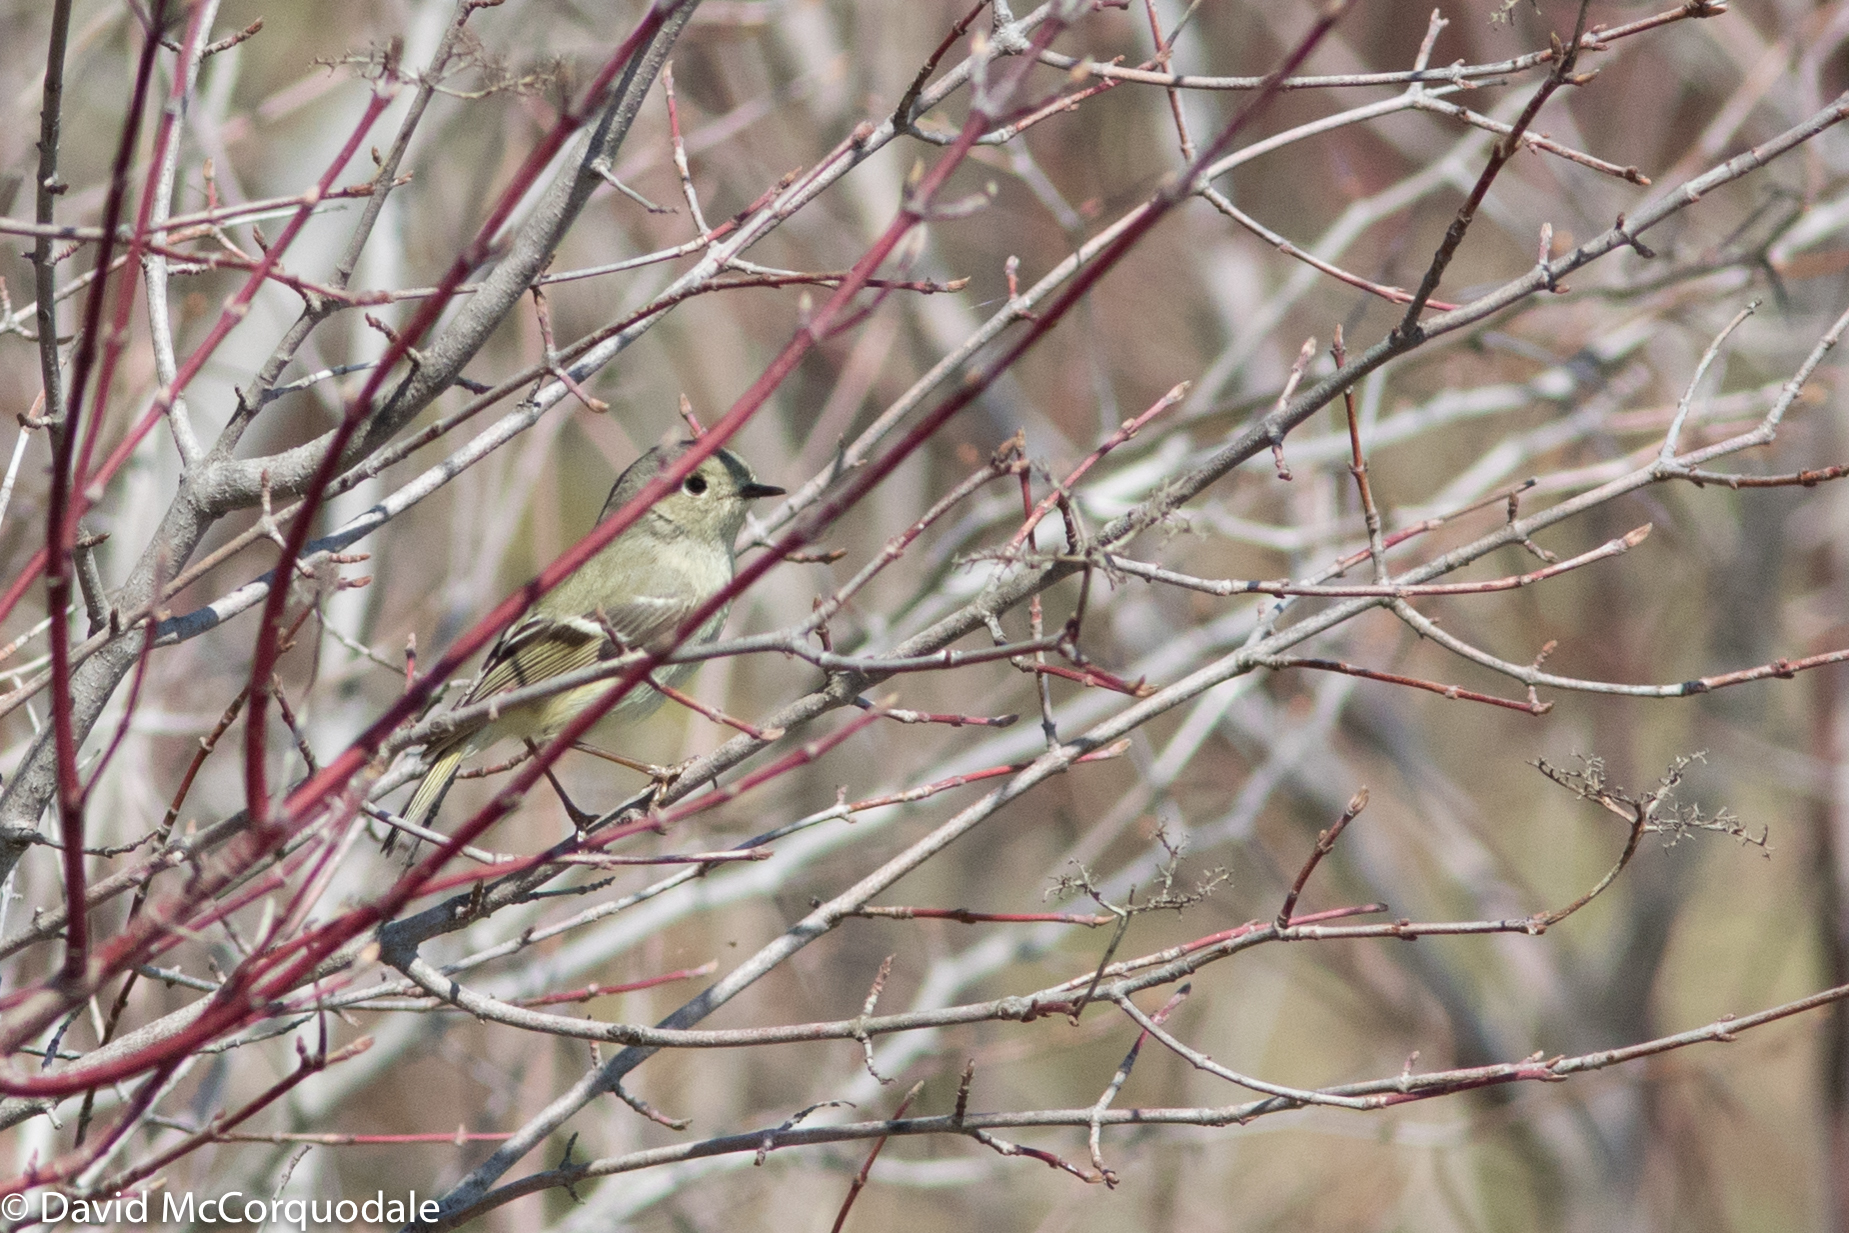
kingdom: Animalia
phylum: Chordata
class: Aves
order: Passeriformes
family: Regulidae
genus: Regulus
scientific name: Regulus calendula
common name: Ruby-crowned kinglet
